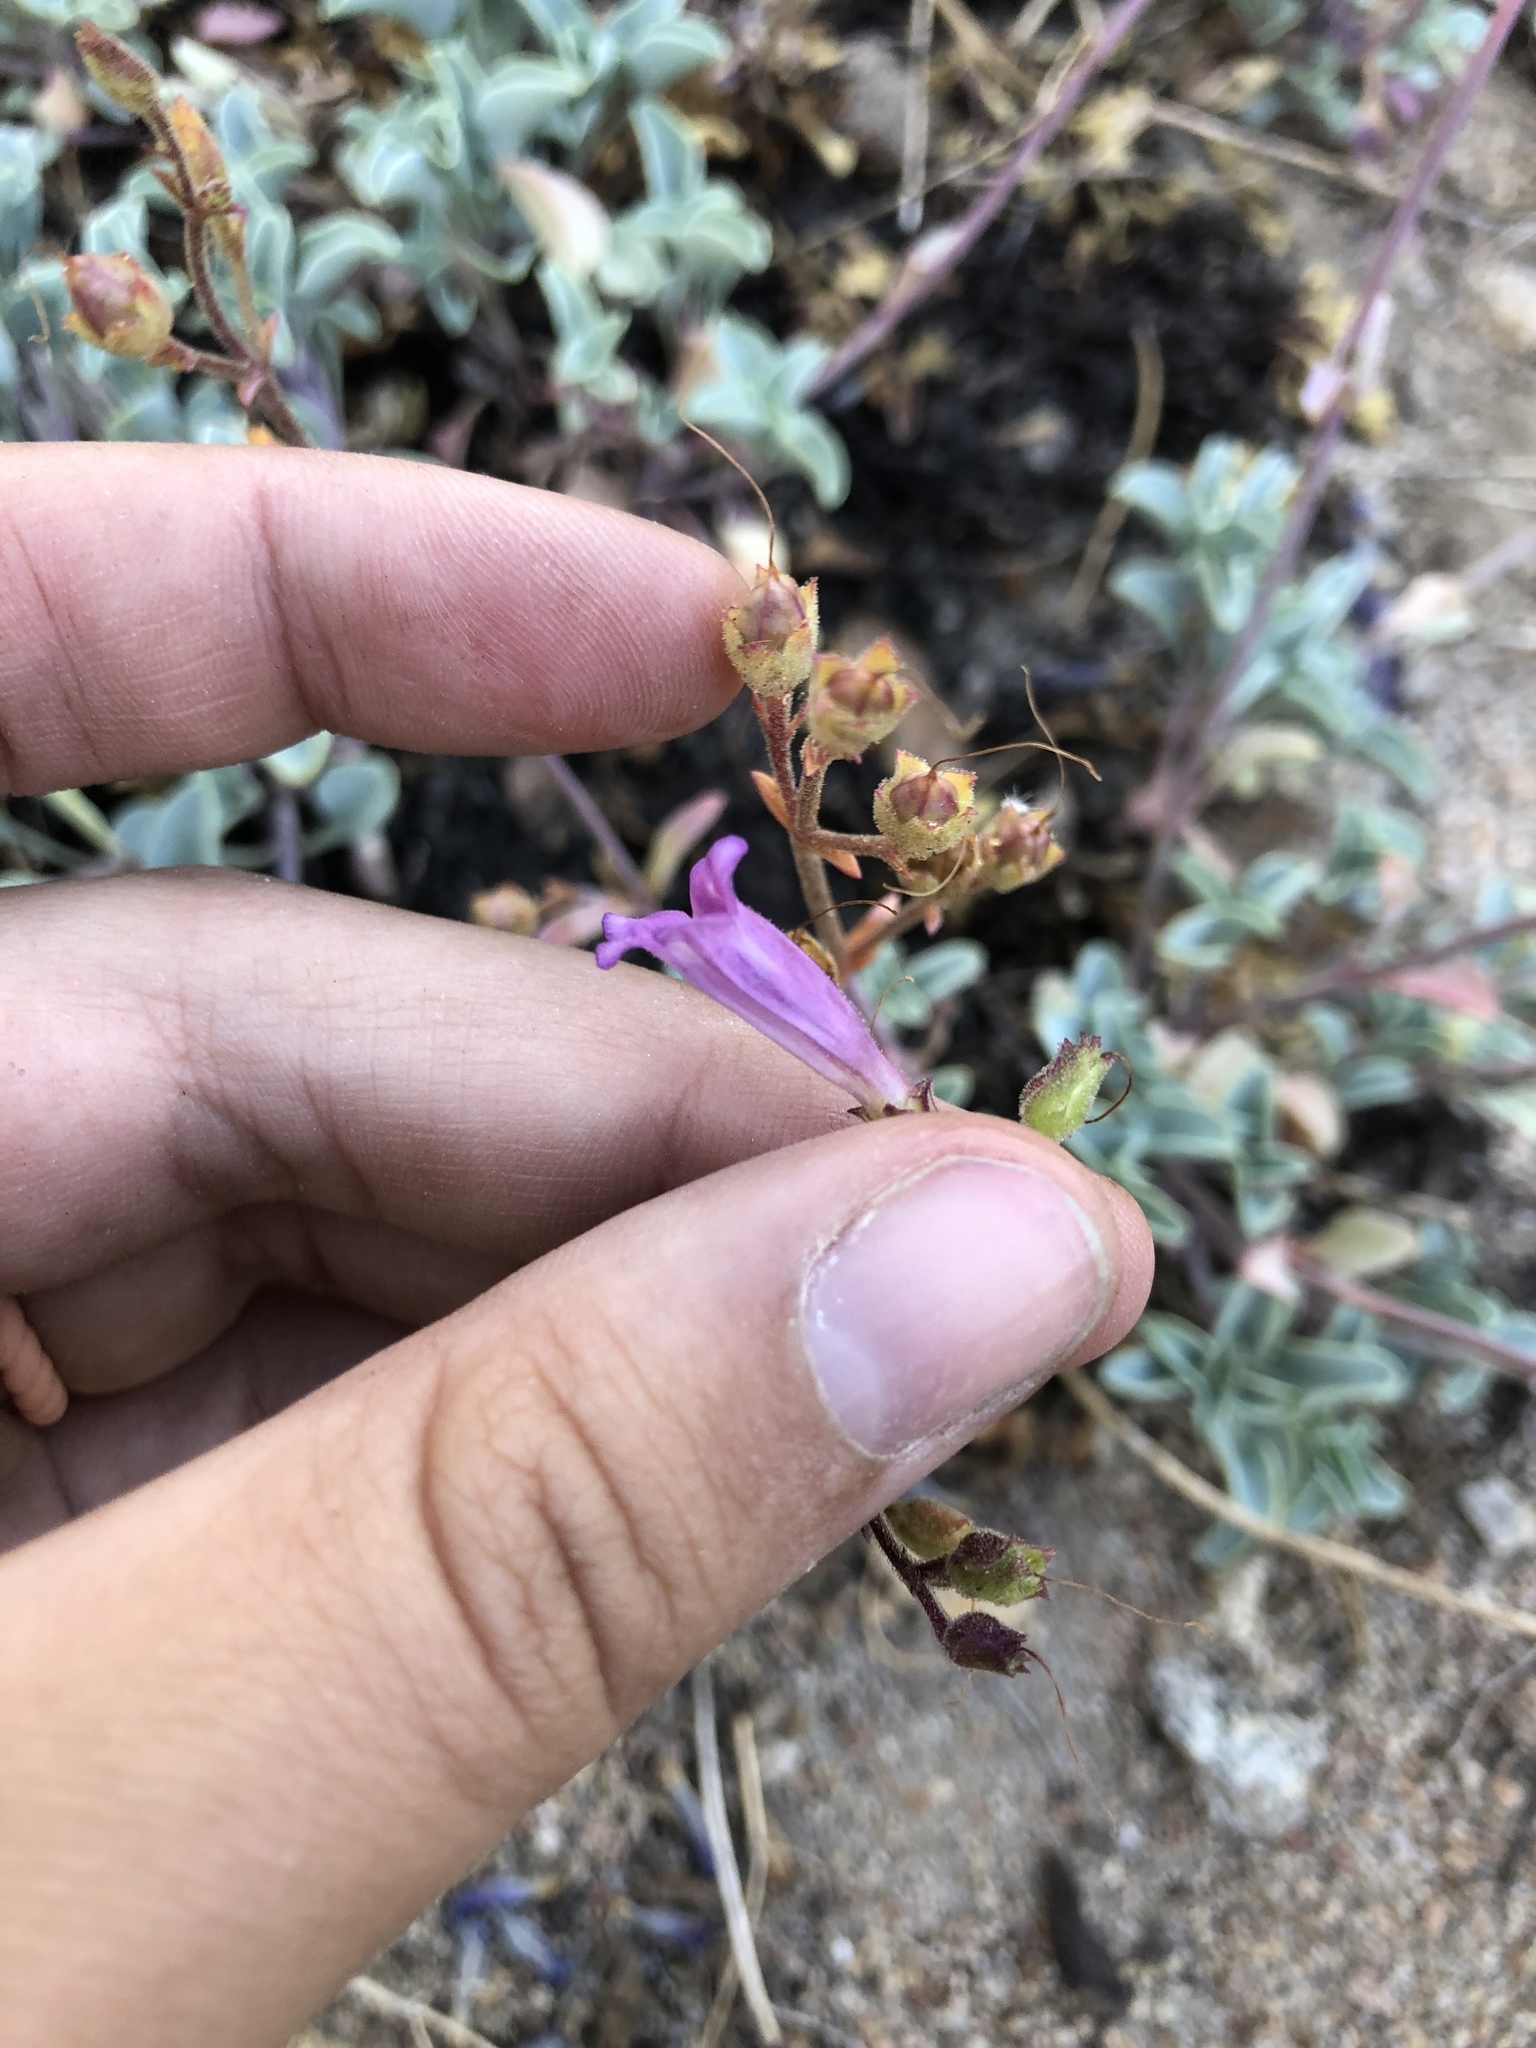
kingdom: Plantae
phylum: Tracheophyta
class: Magnoliopsida
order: Lamiales
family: Plantaginaceae
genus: Penstemon
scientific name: Penstemon caesius
